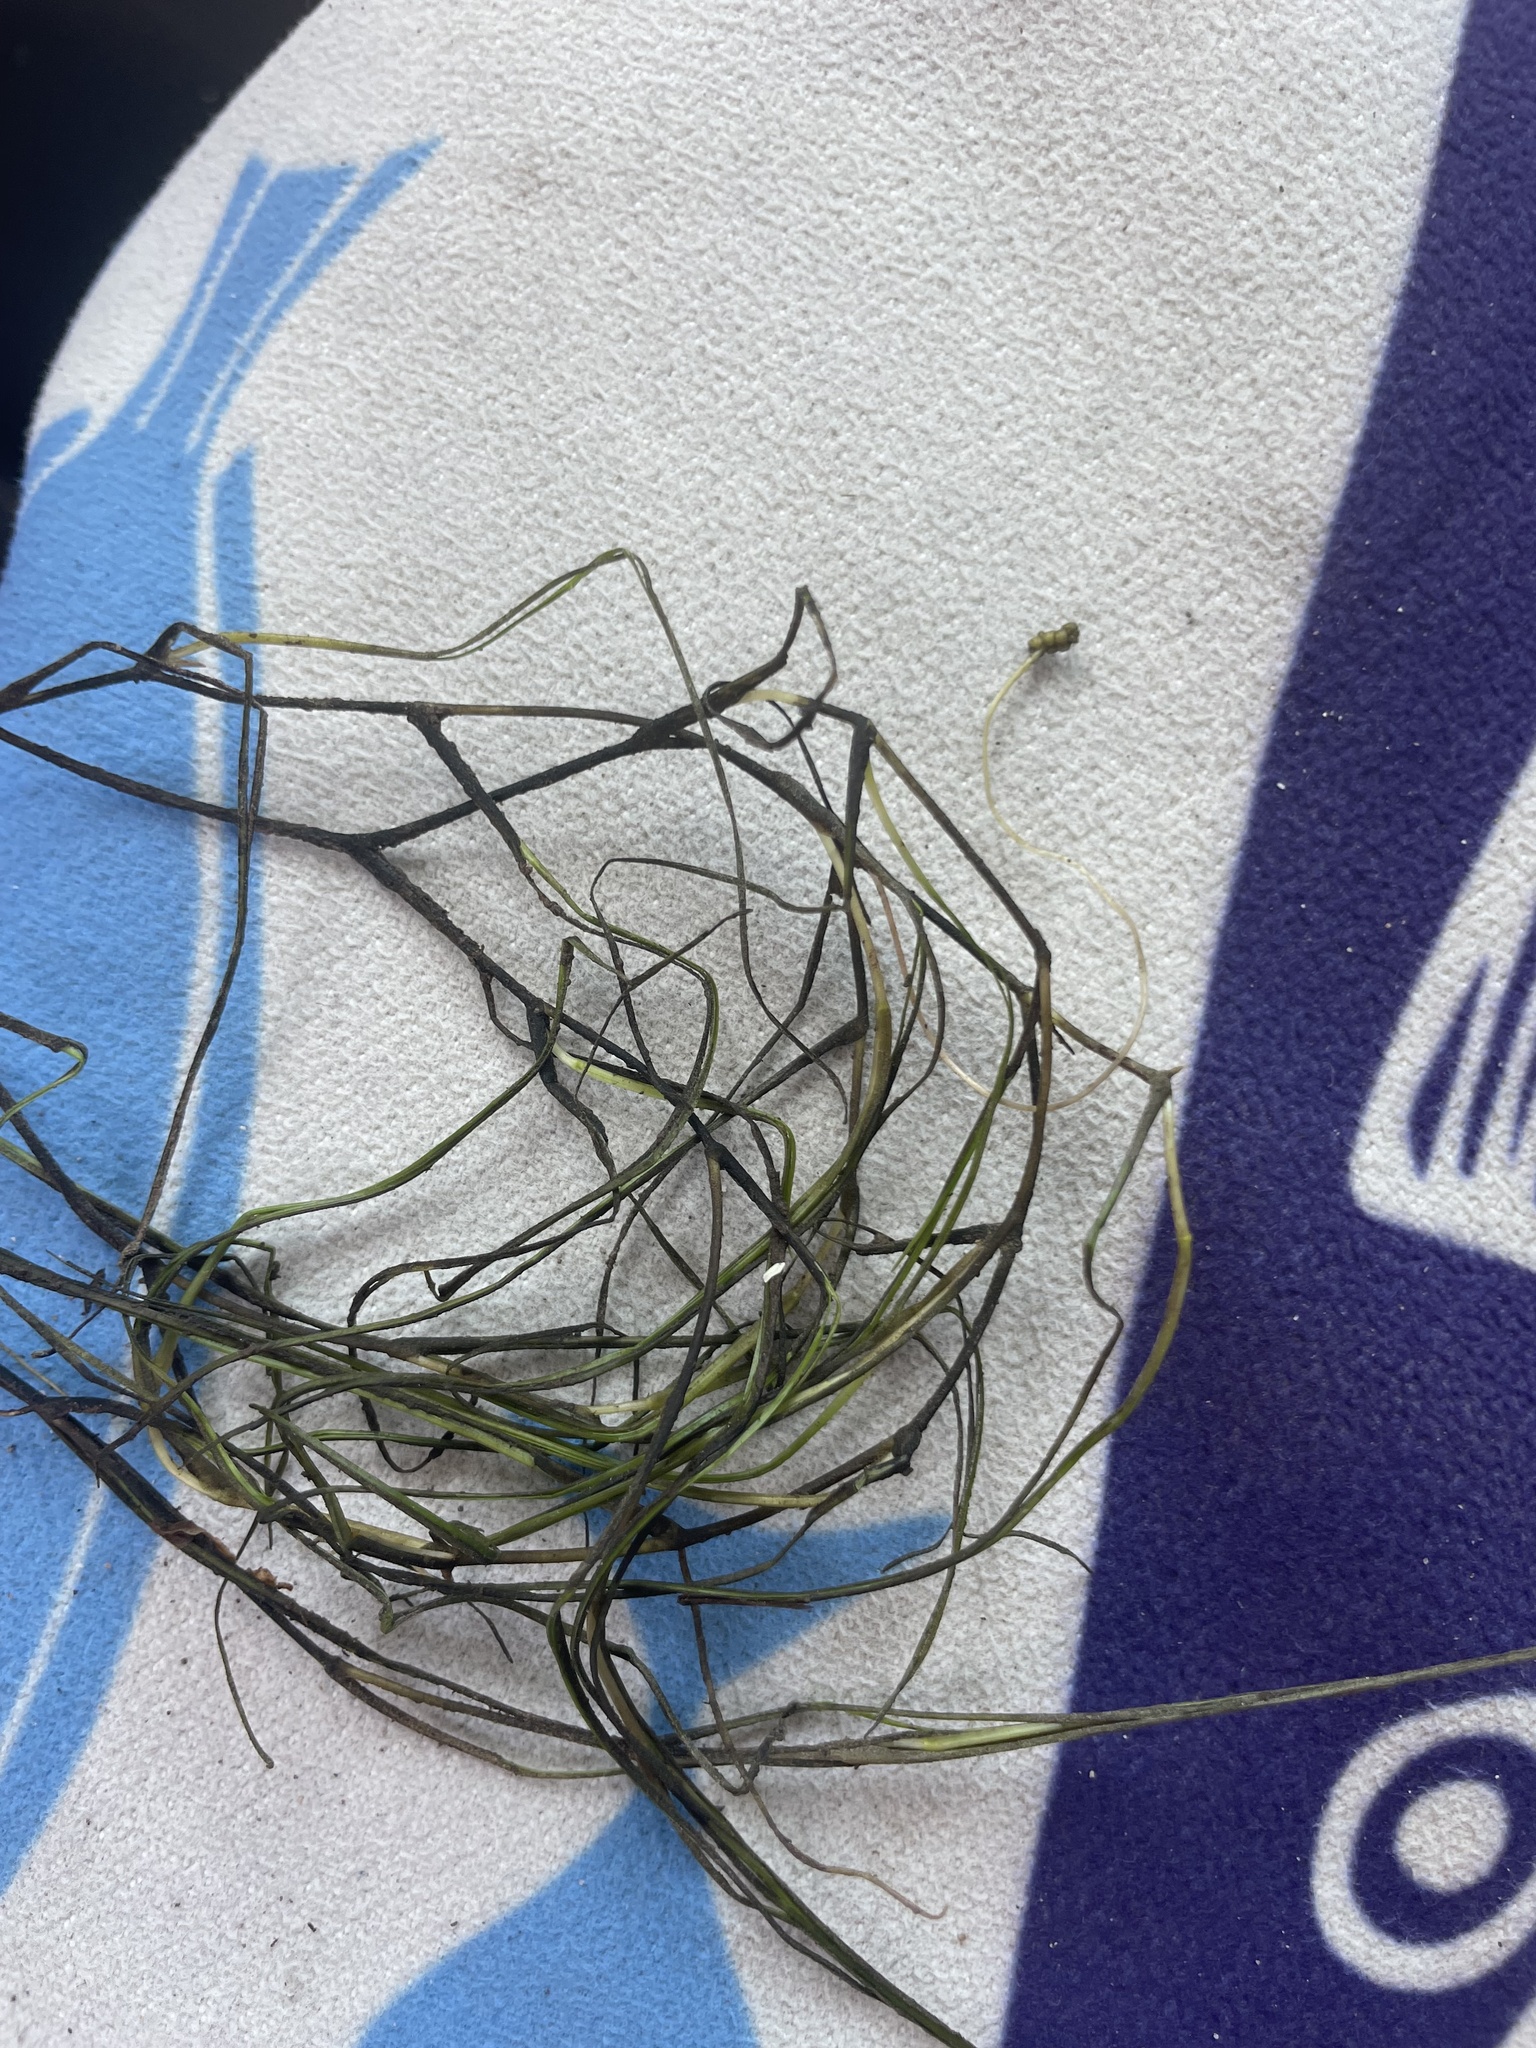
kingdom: Plantae
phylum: Tracheophyta
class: Liliopsida
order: Alismatales
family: Ruppiaceae
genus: Ruppia
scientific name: Ruppia maritima
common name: Beaked tasselweed
